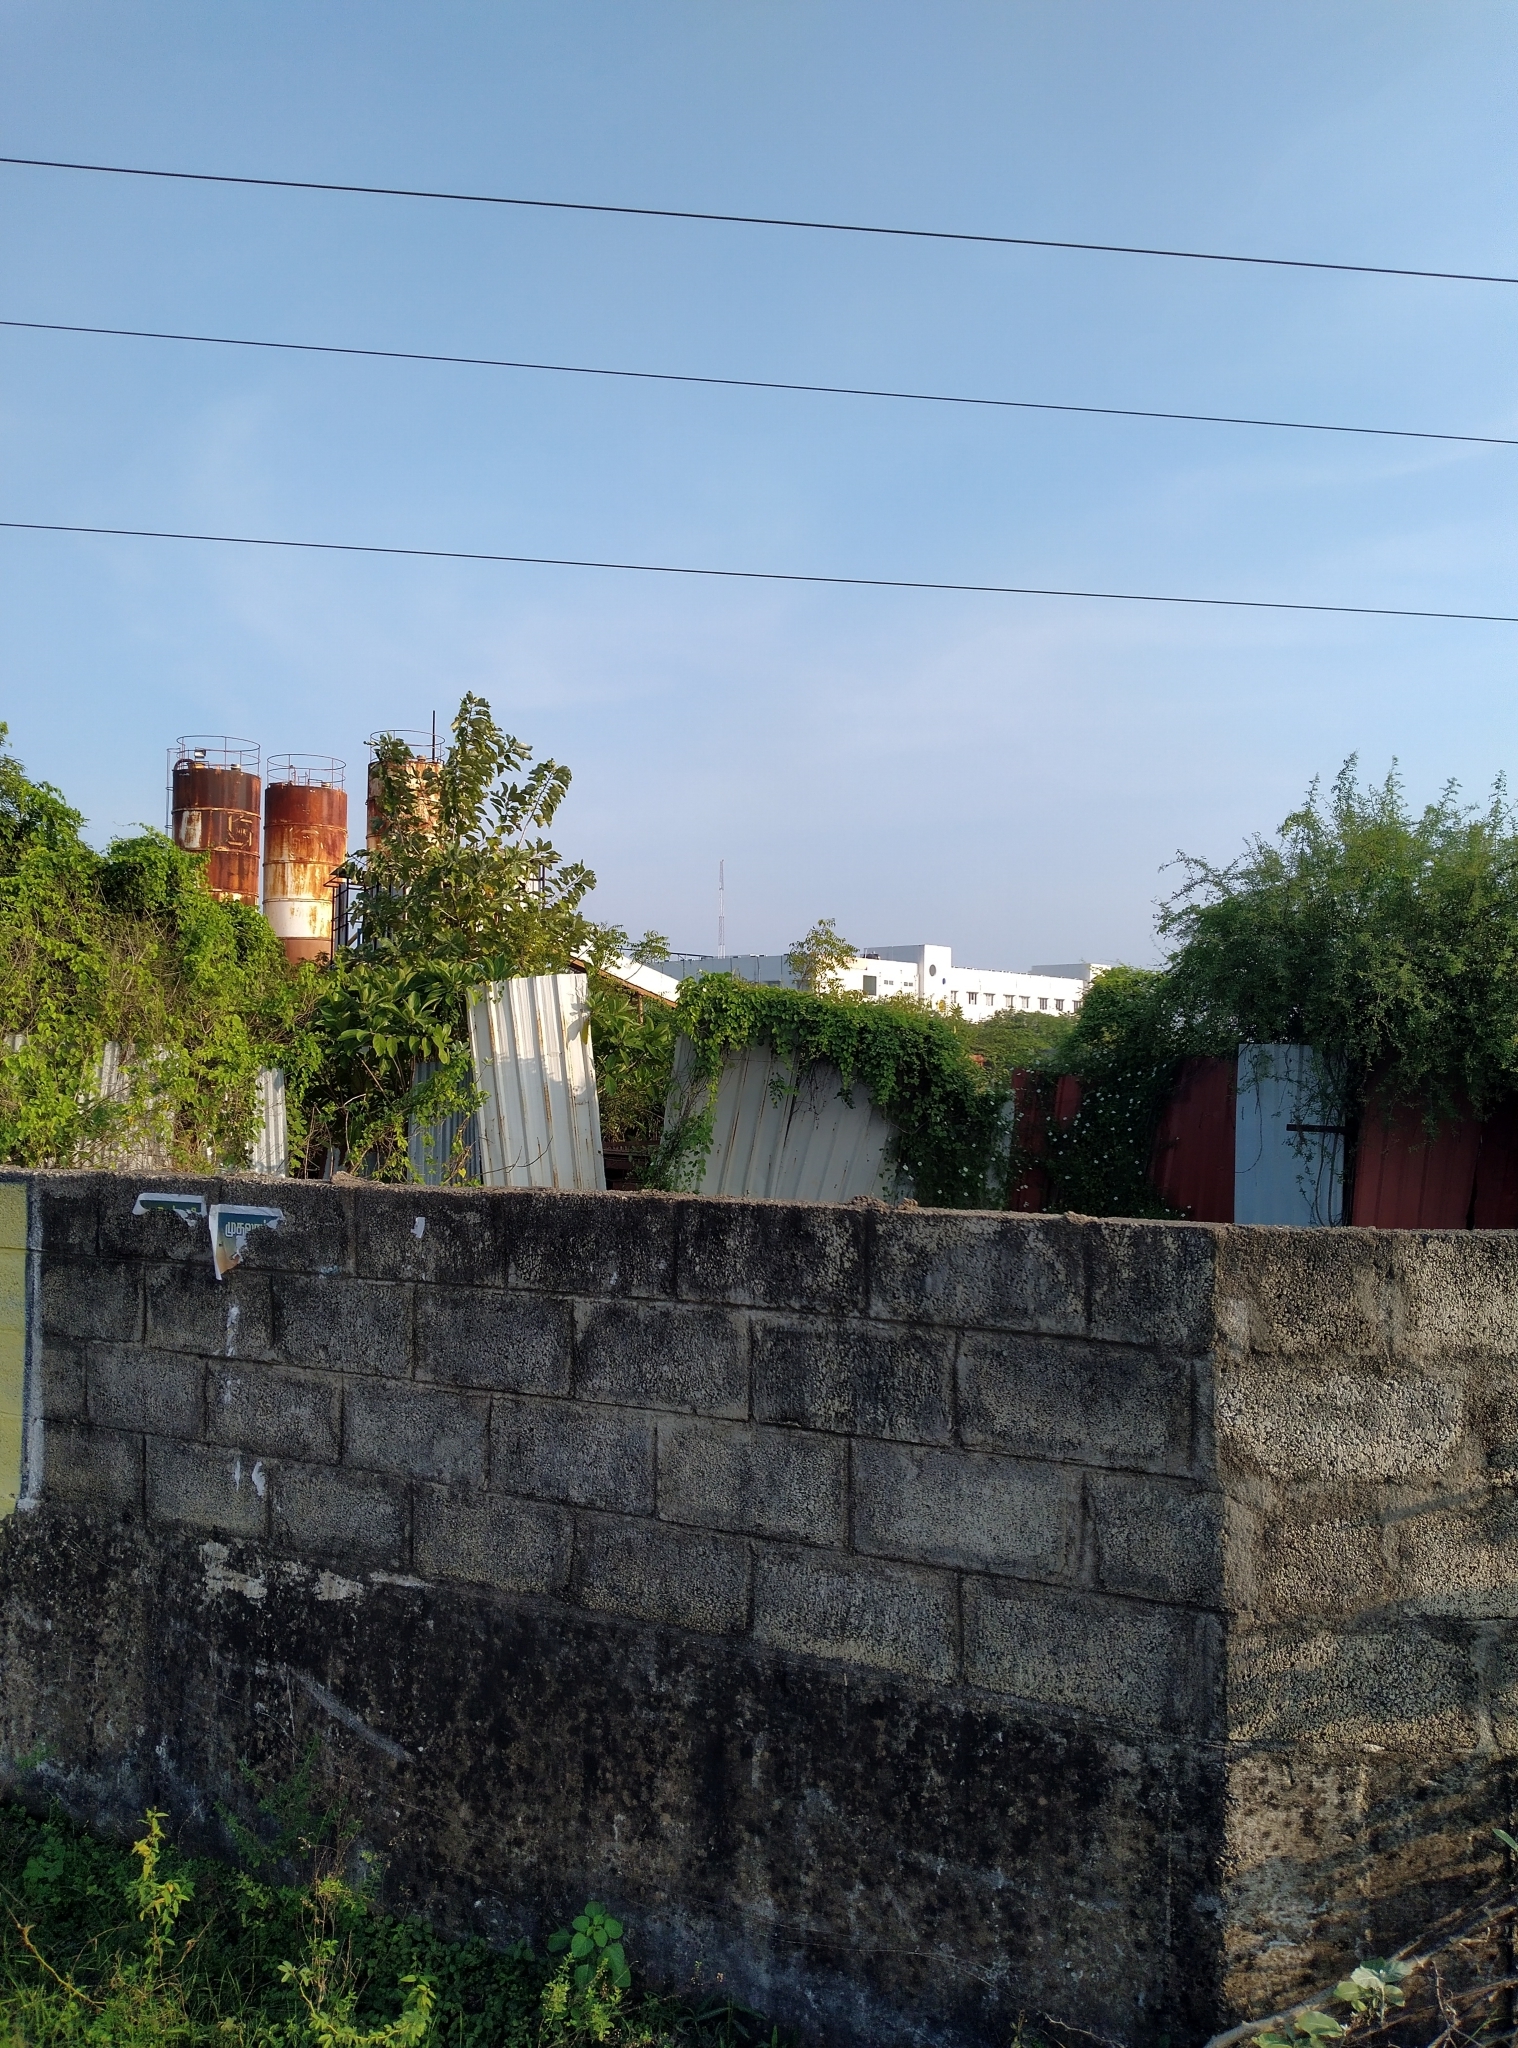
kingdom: Animalia
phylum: Chordata
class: Squamata
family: Elapidae
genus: Naja
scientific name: Naja naja
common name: Indian cobra
